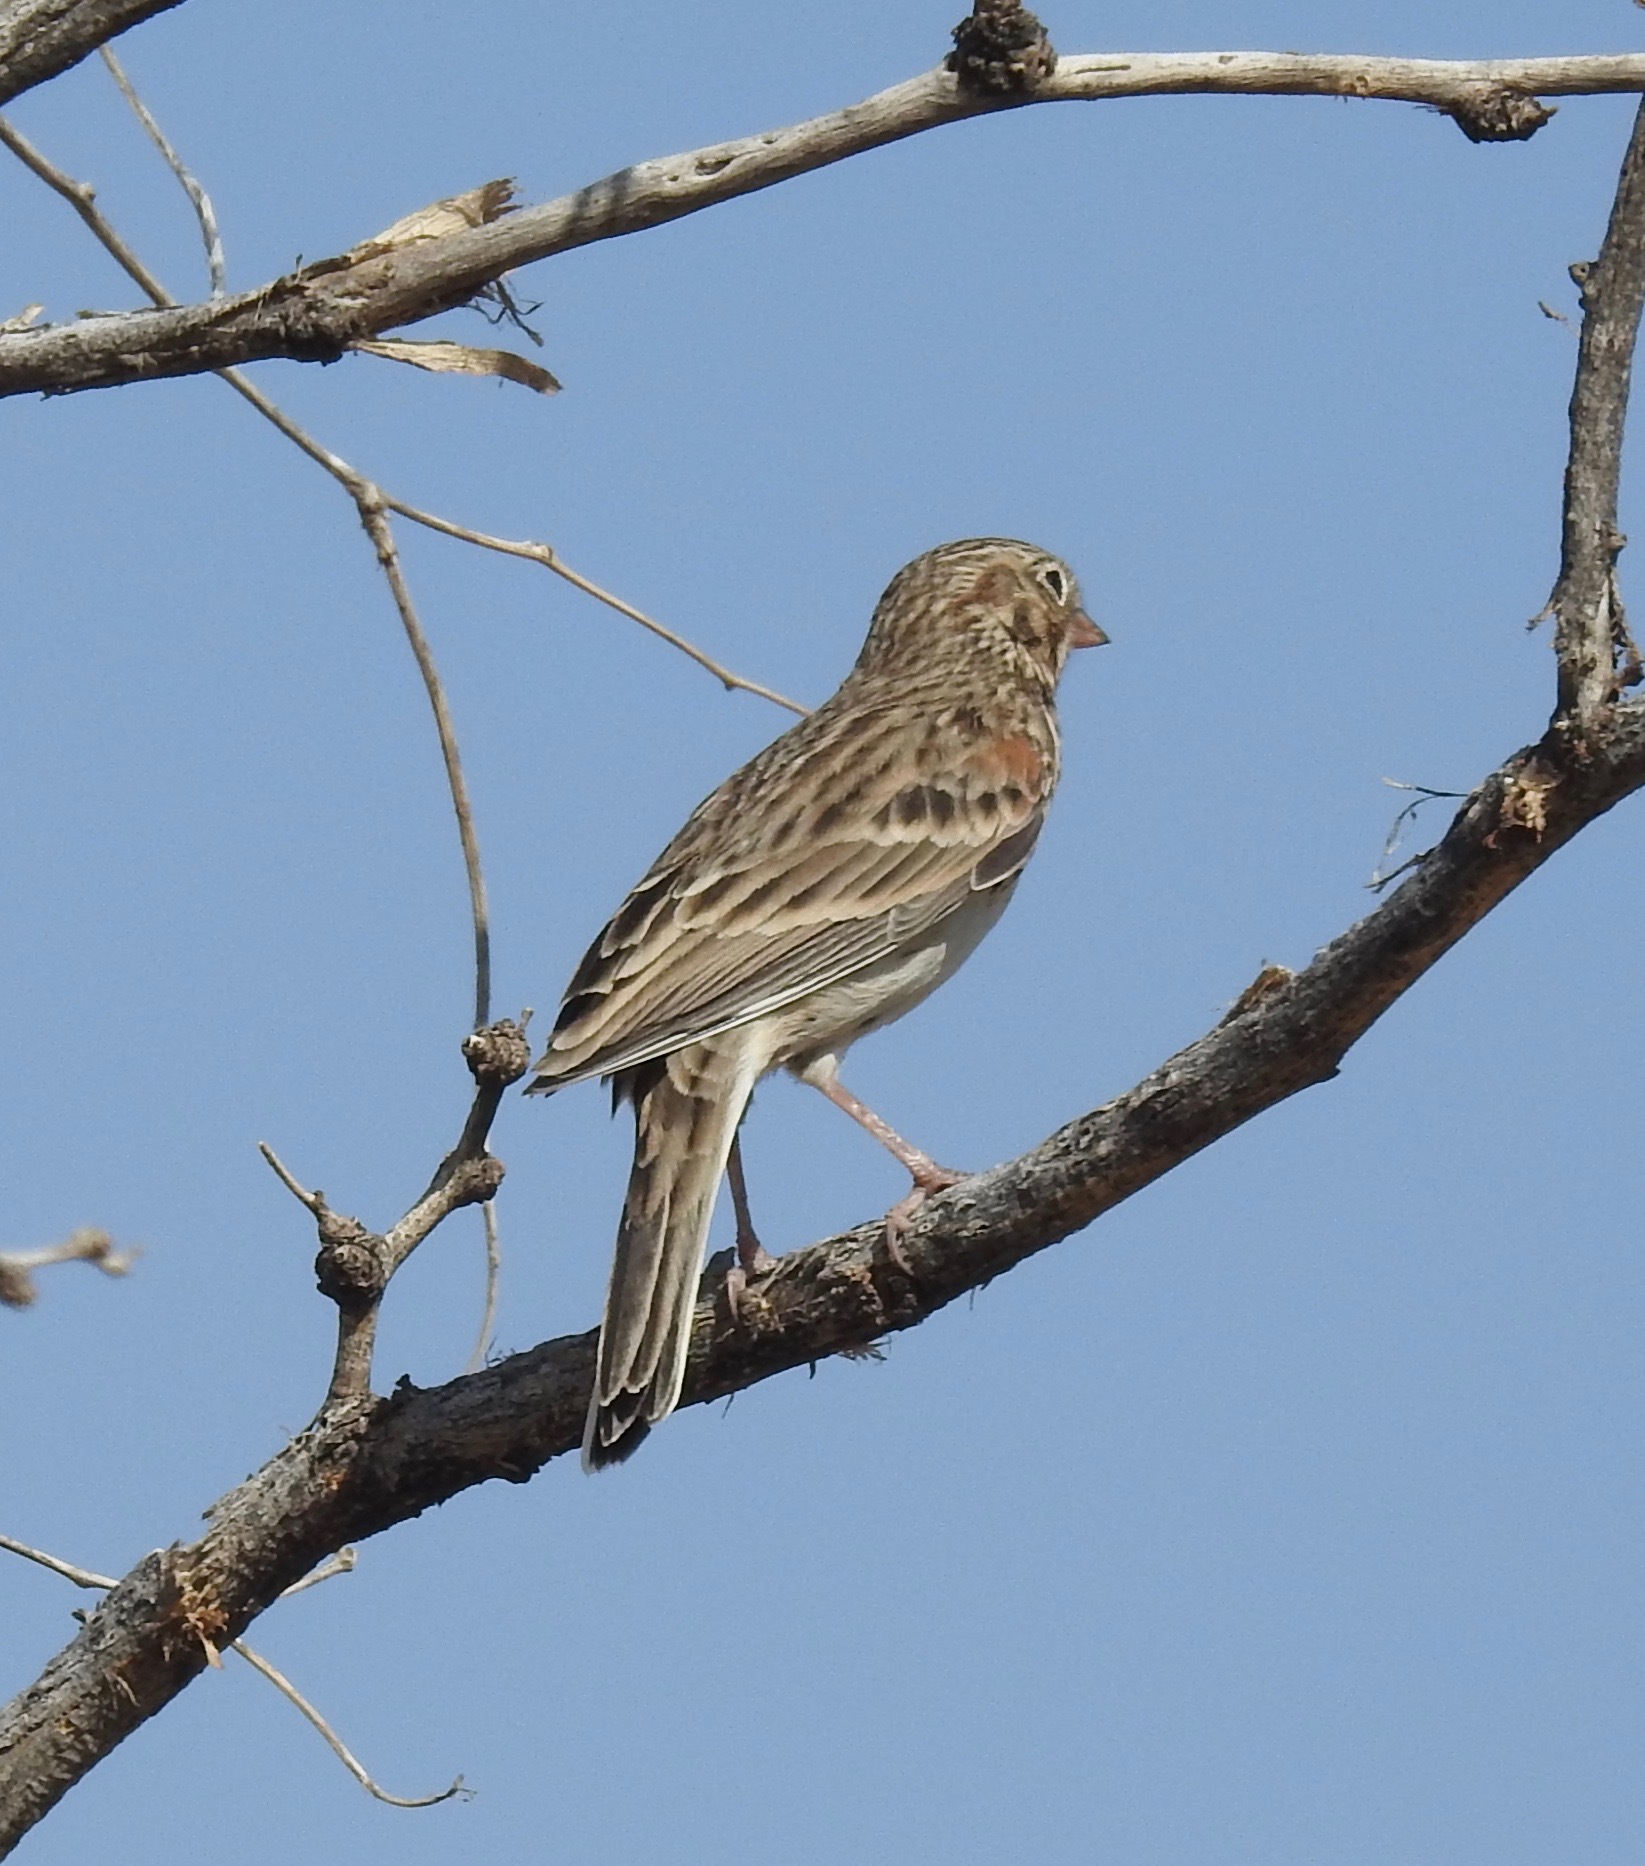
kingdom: Animalia
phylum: Chordata
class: Aves
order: Passeriformes
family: Passerellidae
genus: Pooecetes
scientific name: Pooecetes gramineus
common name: Vesper sparrow
